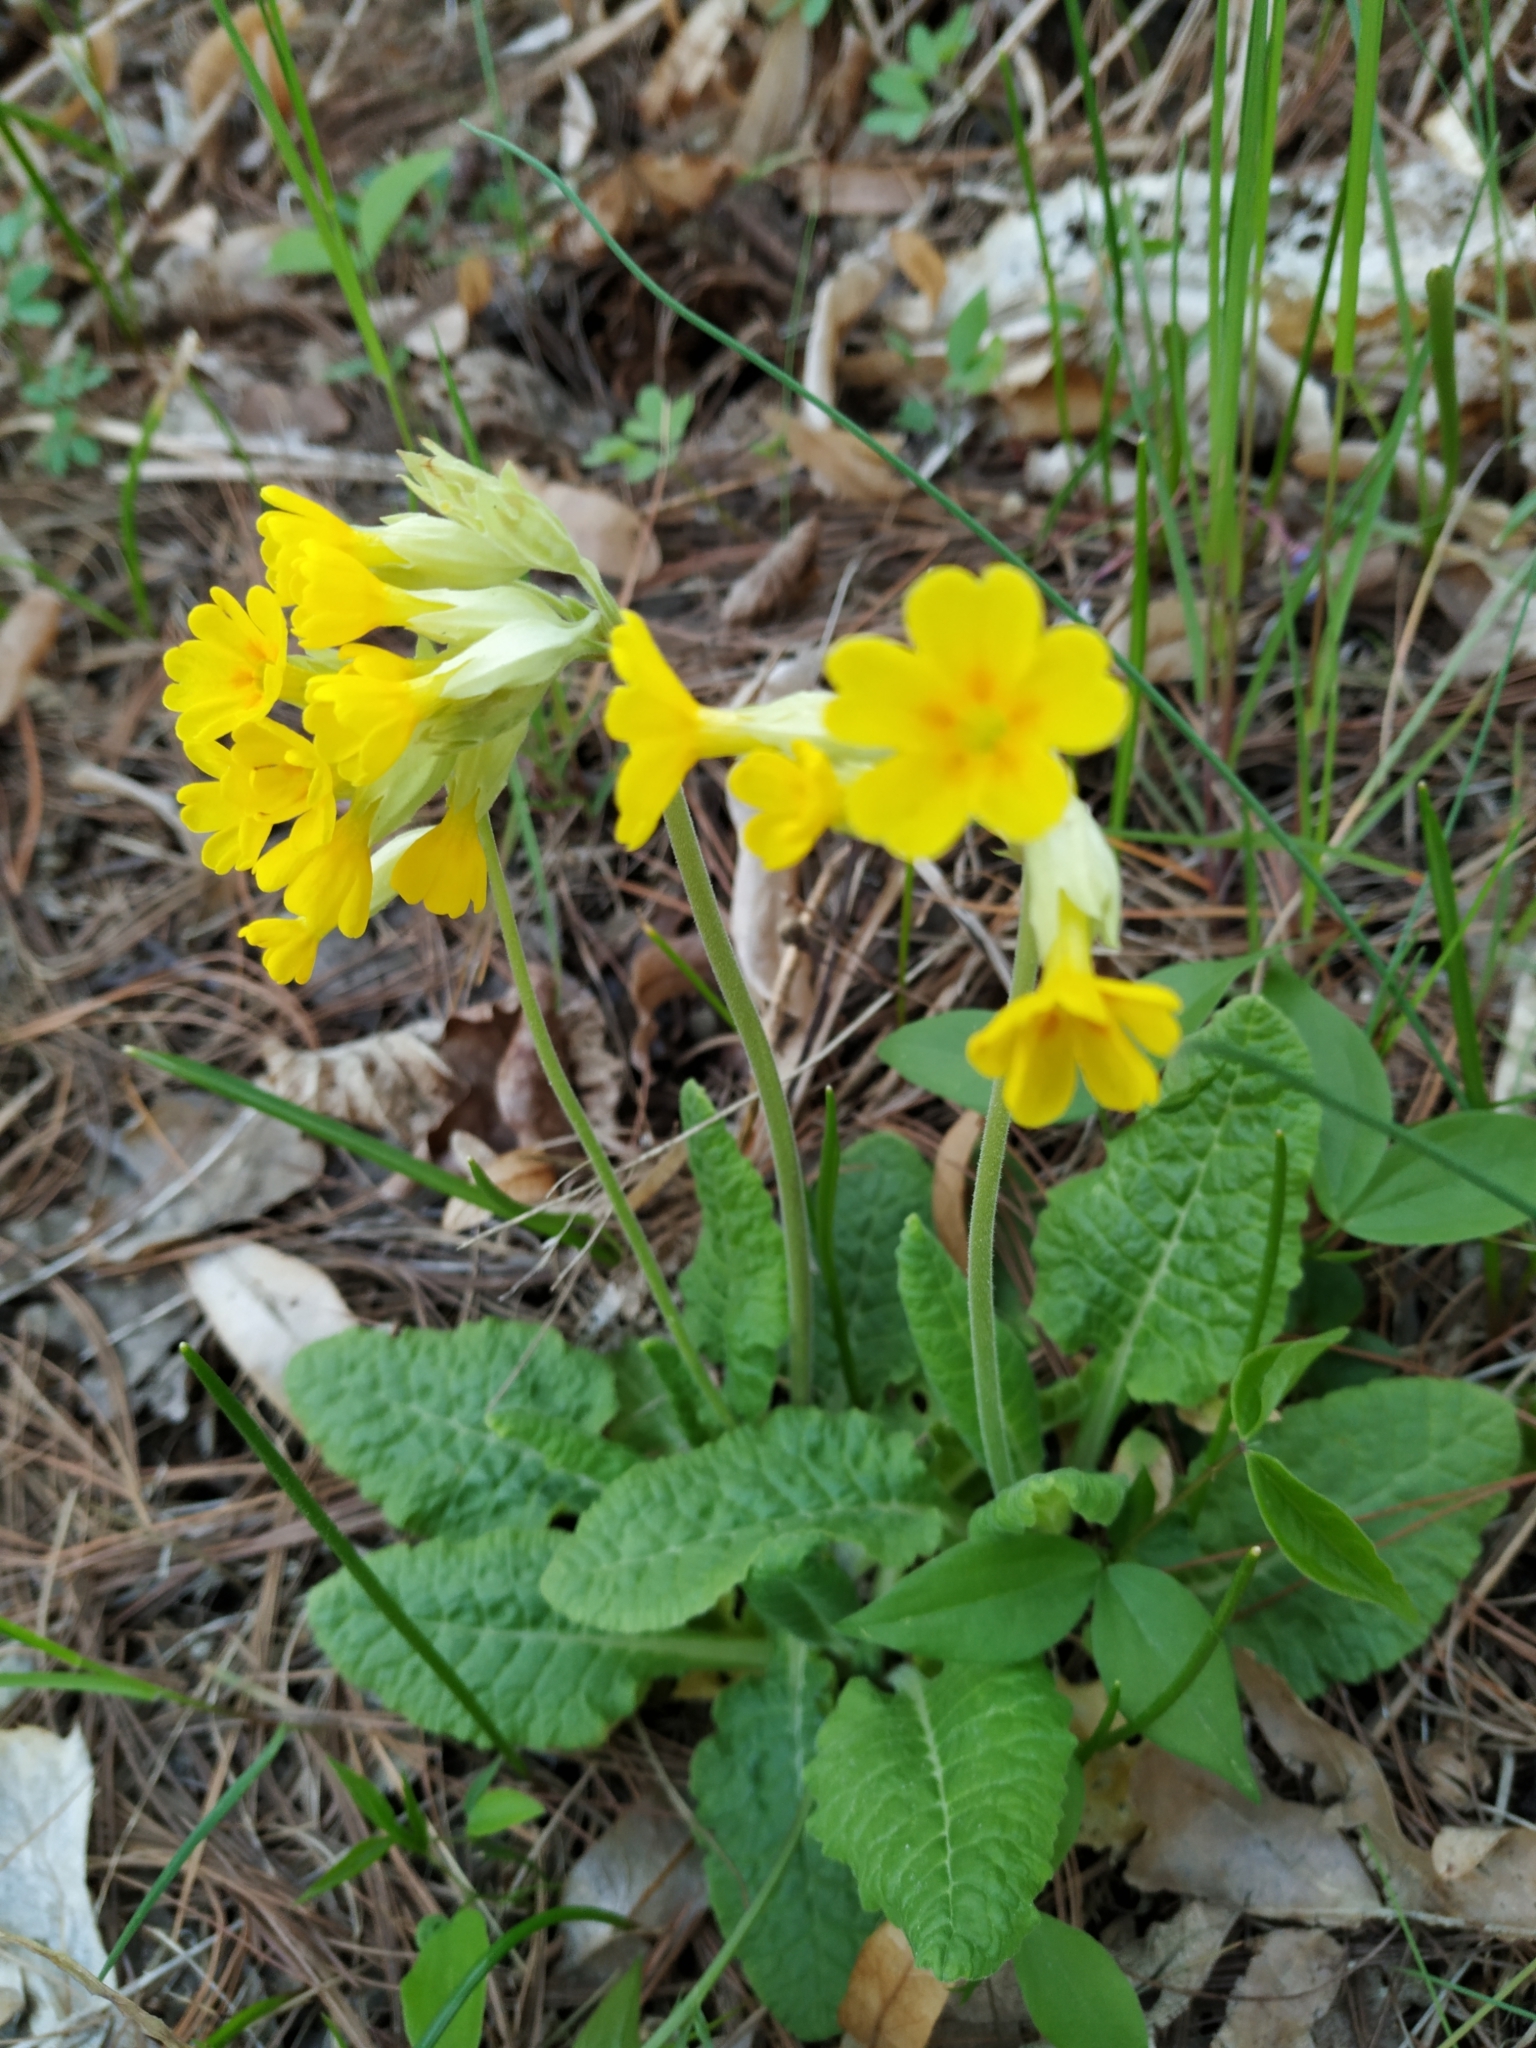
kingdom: Plantae
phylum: Tracheophyta
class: Magnoliopsida
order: Ericales
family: Primulaceae
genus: Primula
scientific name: Primula veris
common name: Cowslip
